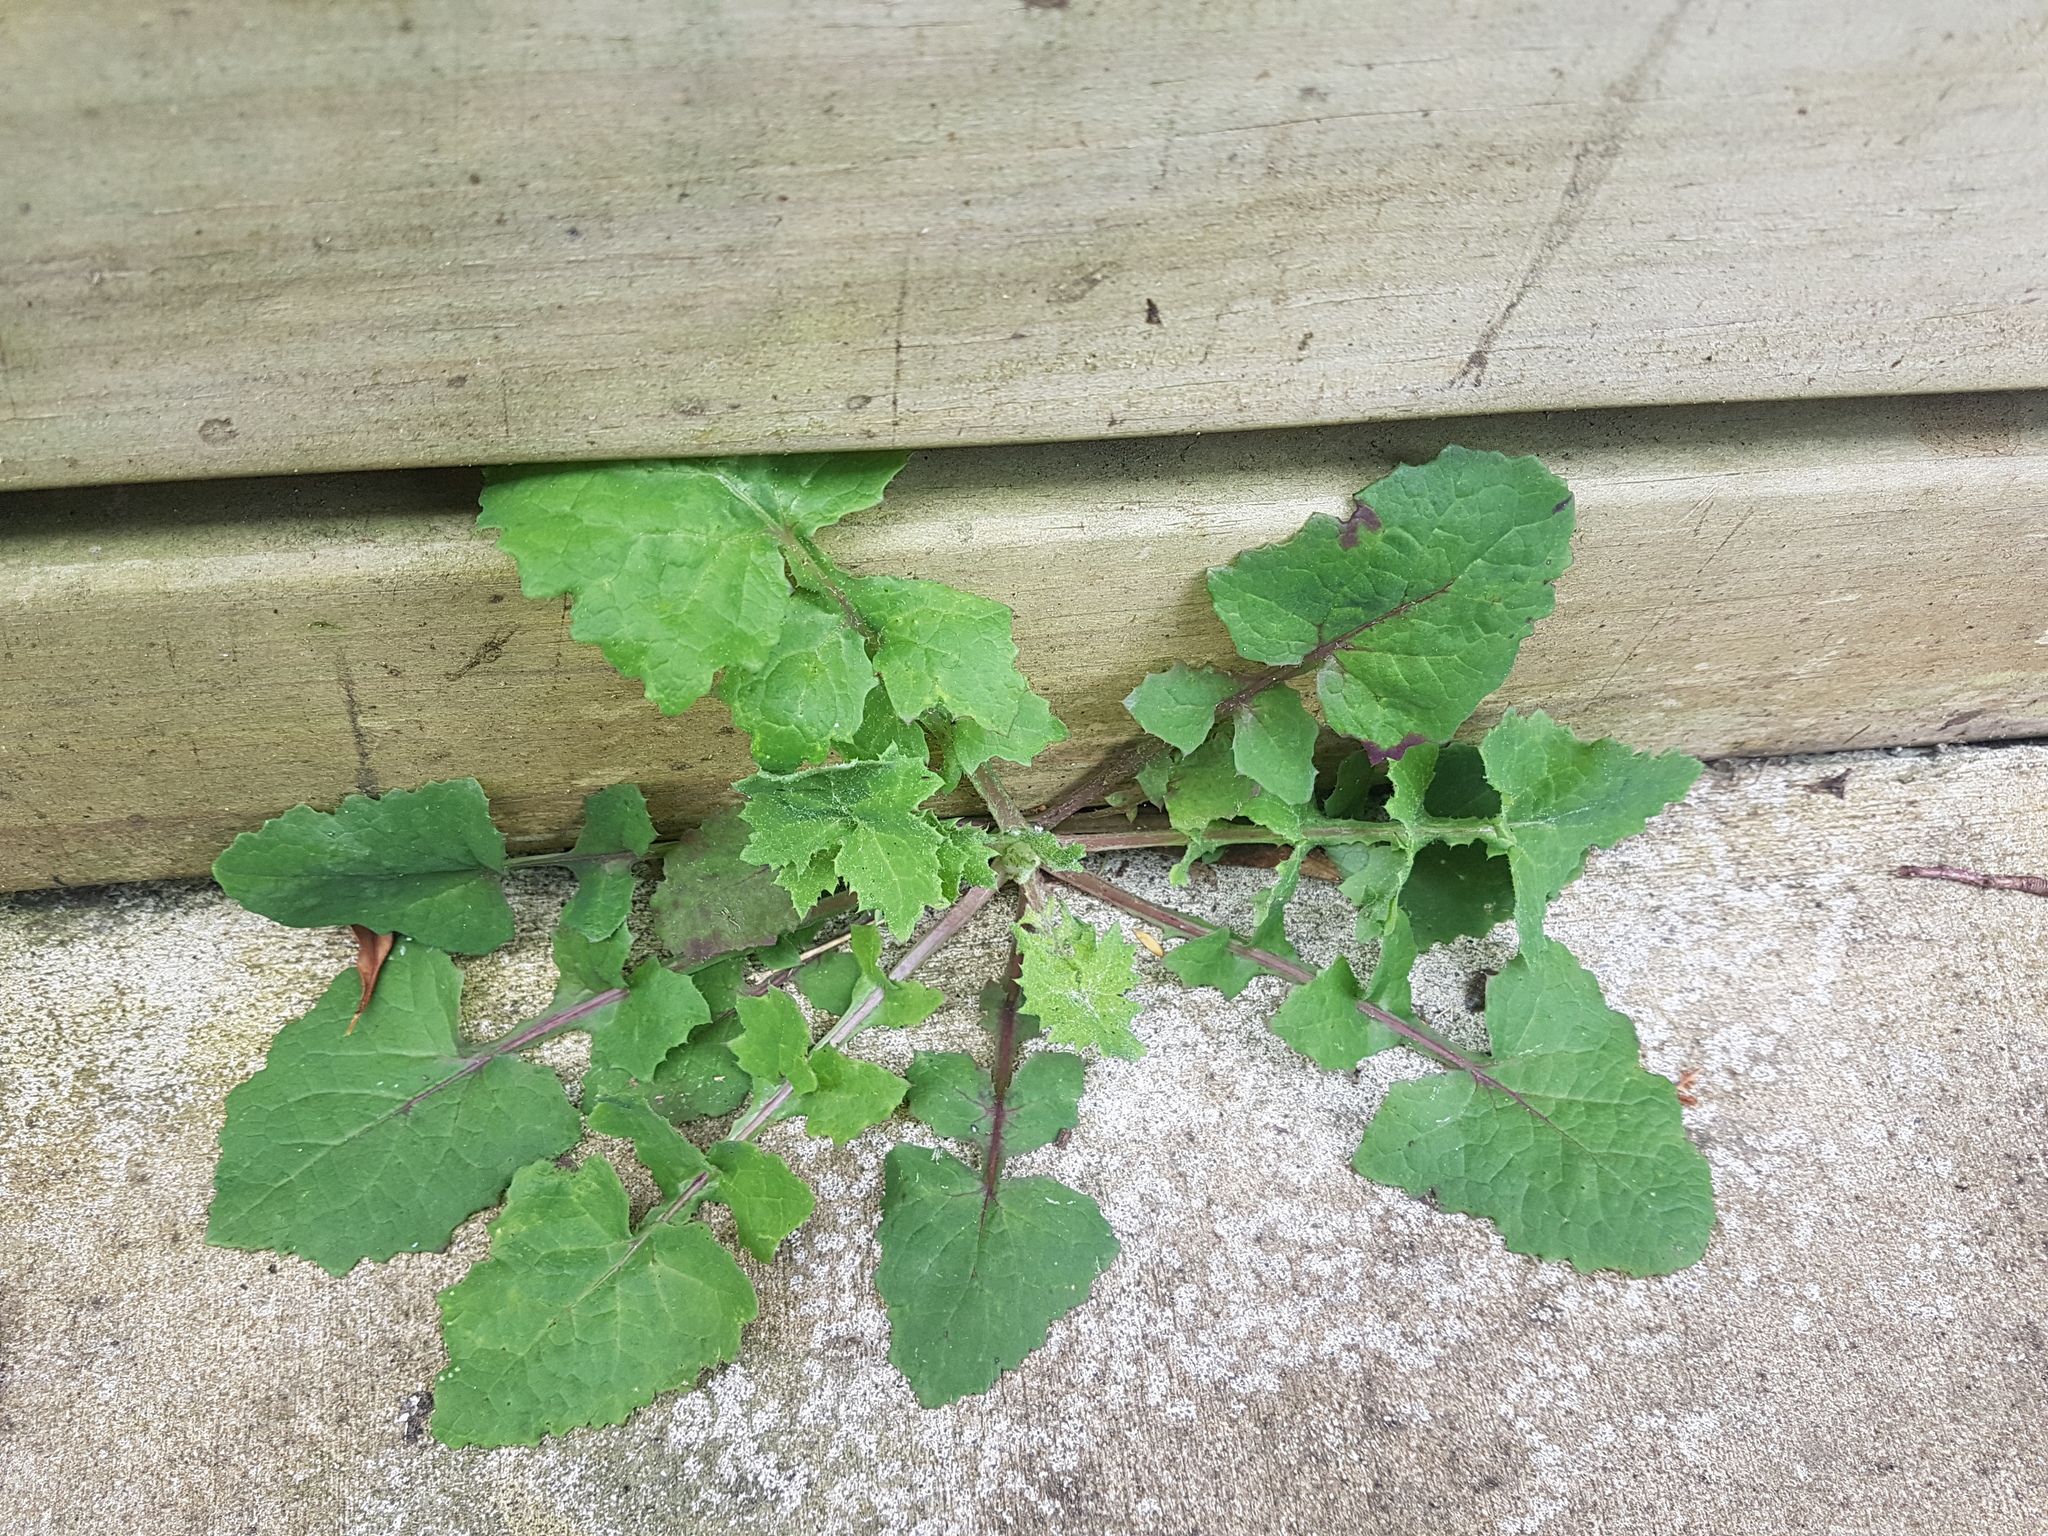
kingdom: Plantae
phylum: Tracheophyta
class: Magnoliopsida
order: Asterales
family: Asteraceae
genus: Sonchus
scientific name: Sonchus oleraceus
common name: Common sowthistle
